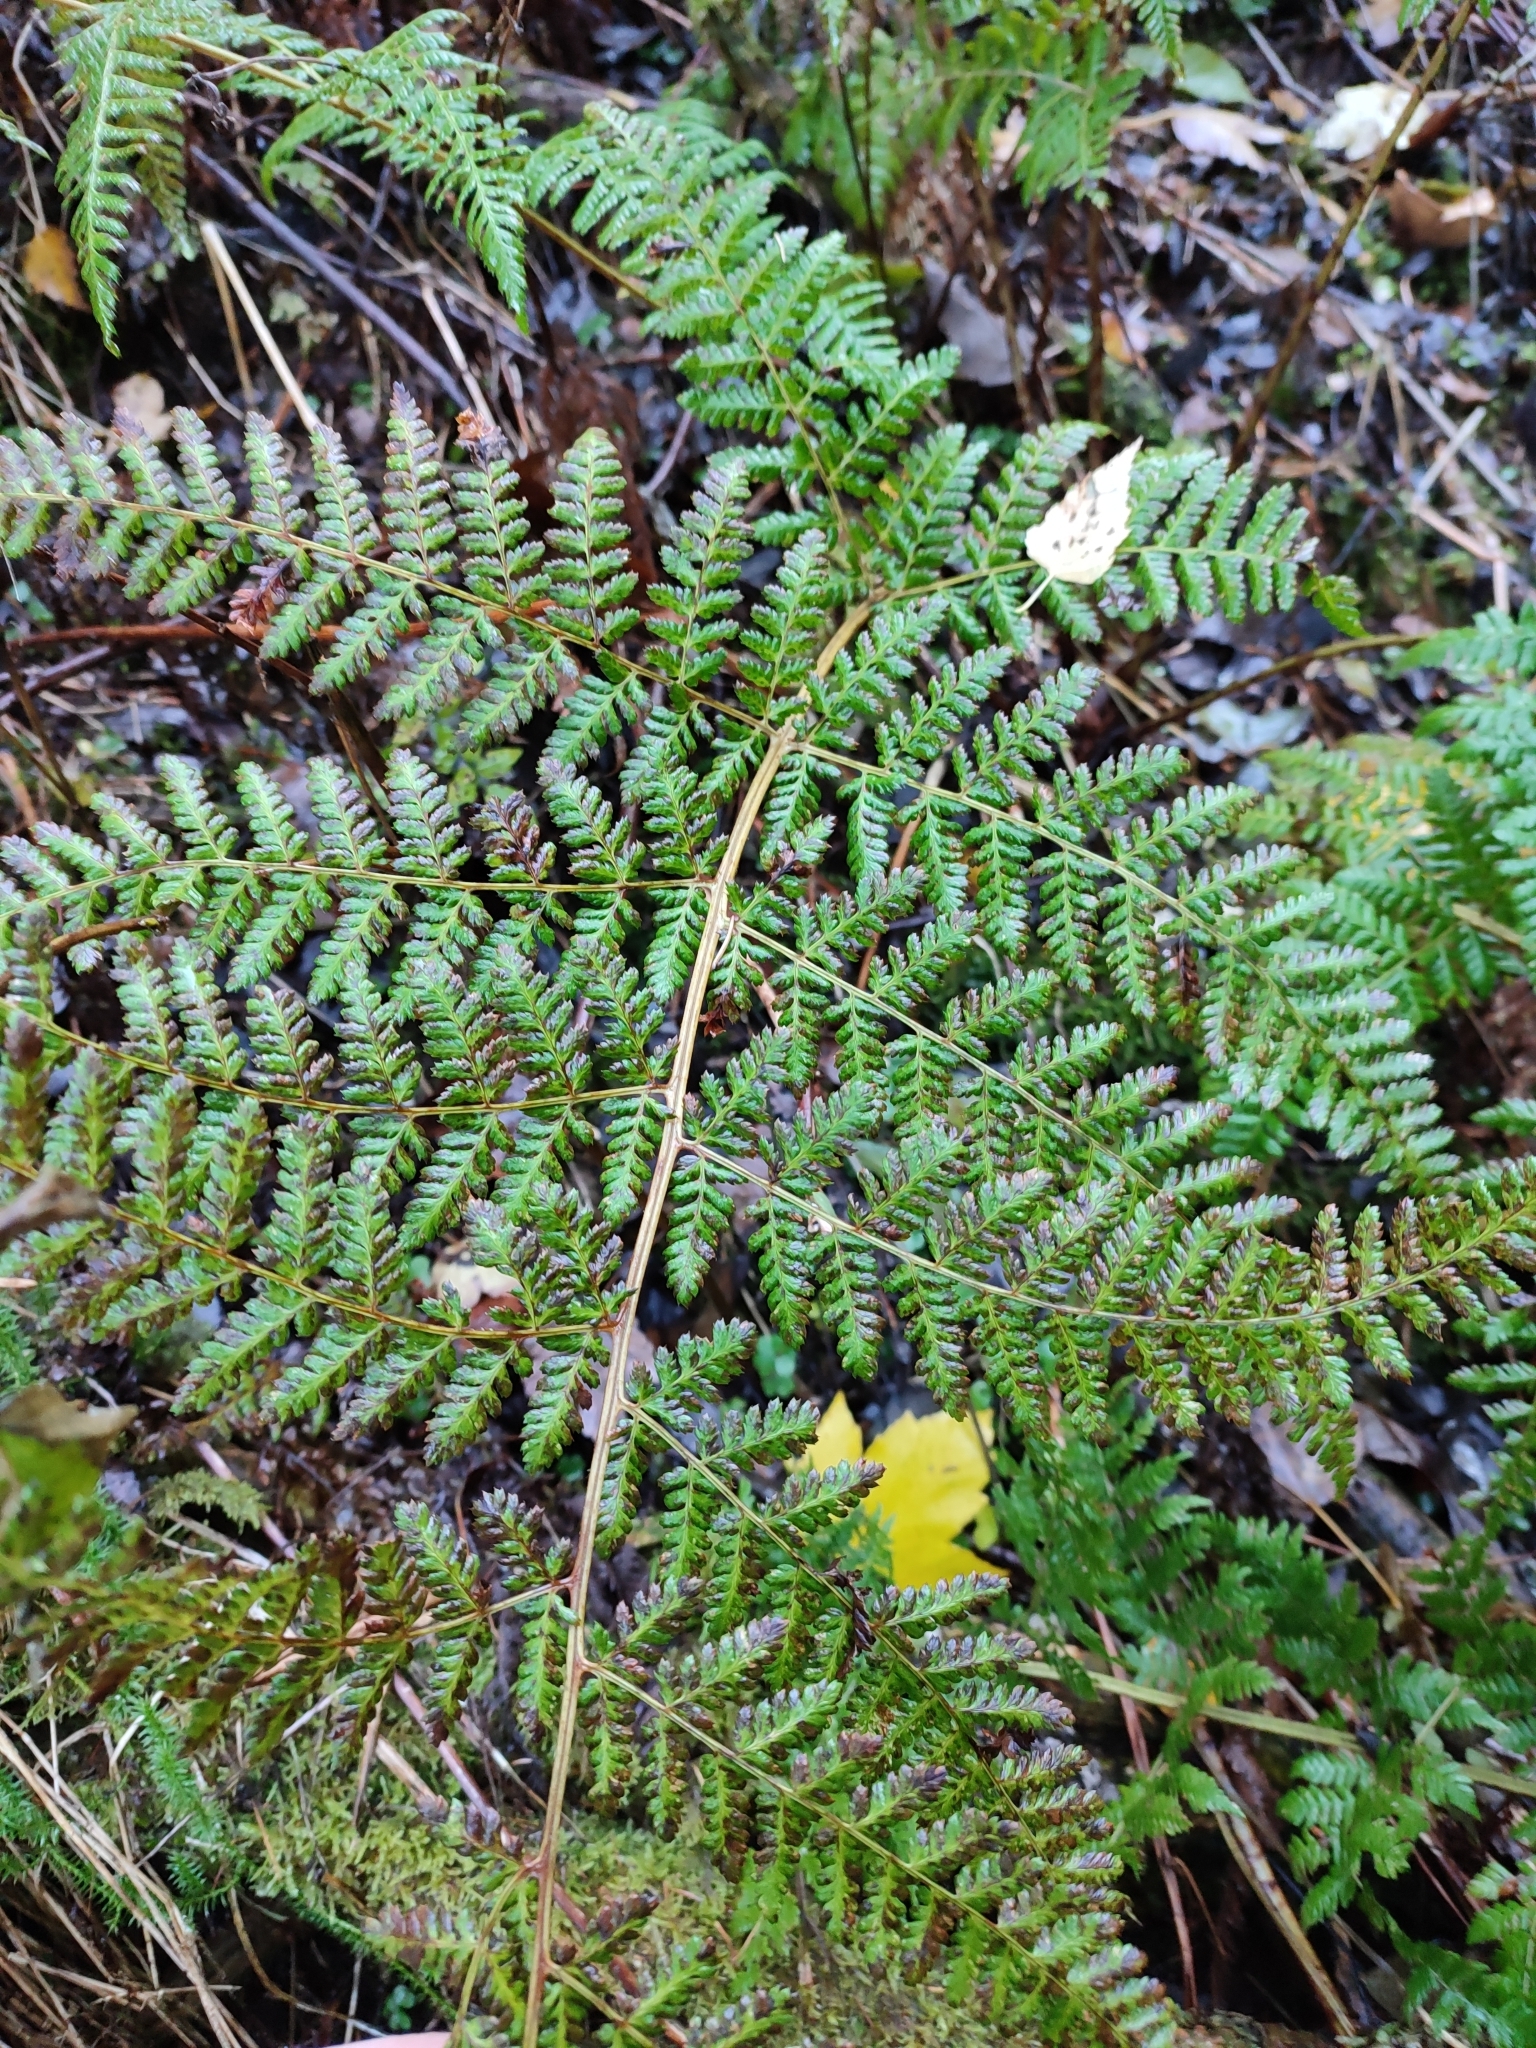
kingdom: Plantae
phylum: Tracheophyta
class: Polypodiopsida
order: Polypodiales
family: Dryopteridaceae
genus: Dryopteris
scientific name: Dryopteris dilatata
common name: Broad buckler-fern
